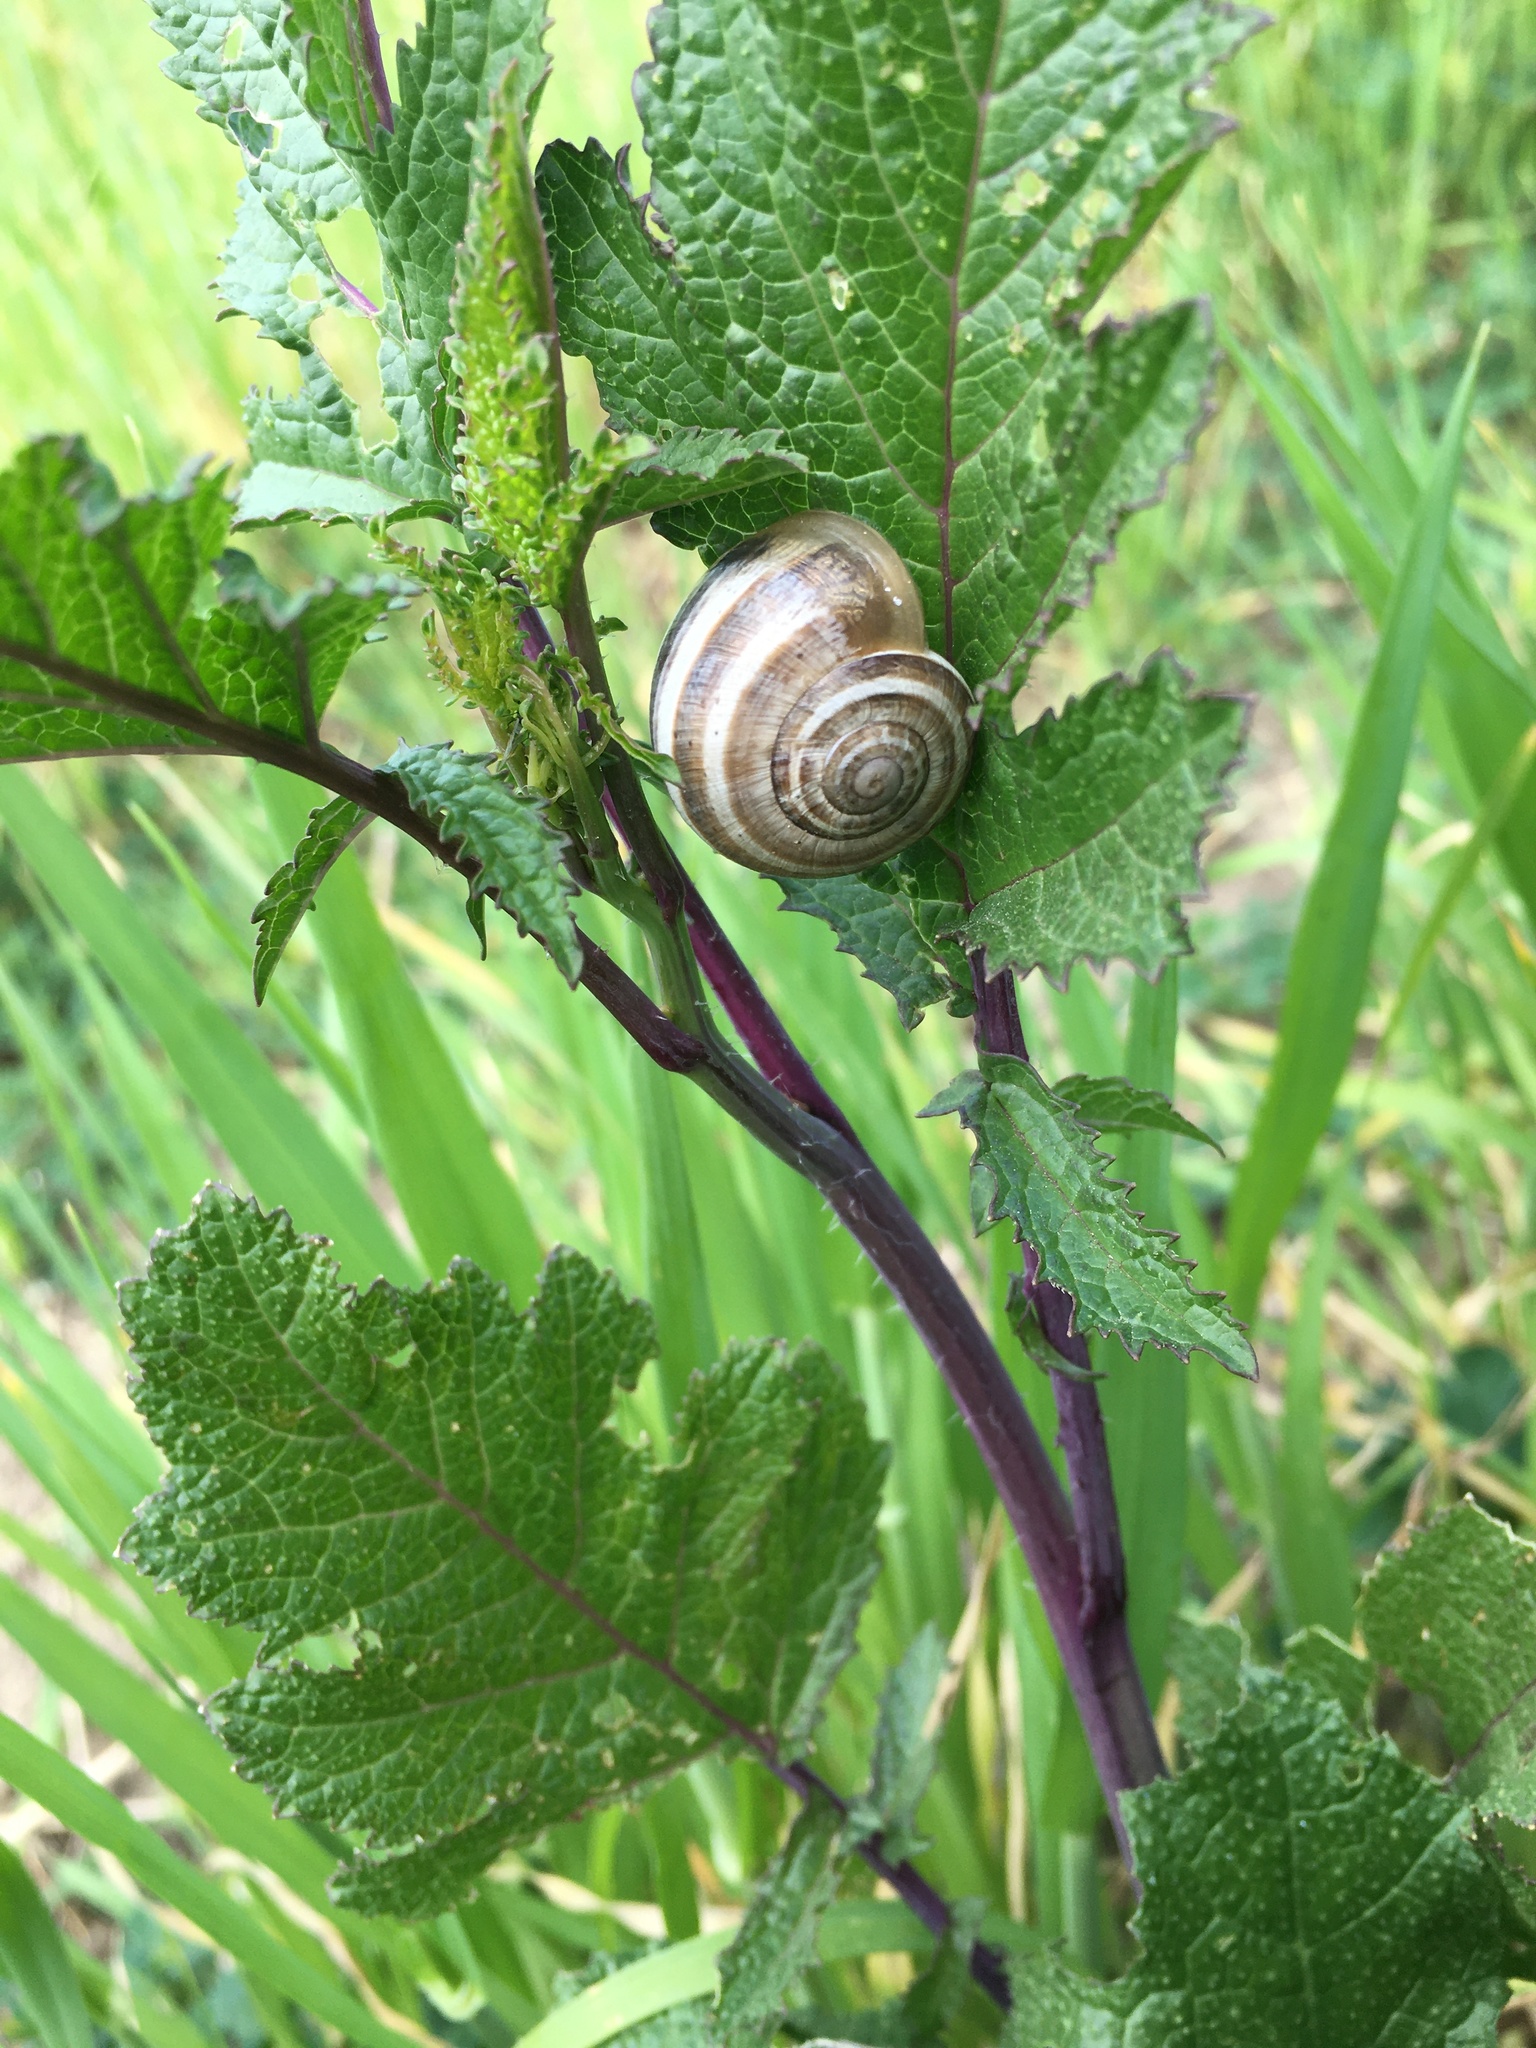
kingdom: Animalia
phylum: Mollusca
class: Gastropoda
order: Stylommatophora
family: Helicidae
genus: Otala
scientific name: Otala lactea
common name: Milk snail
